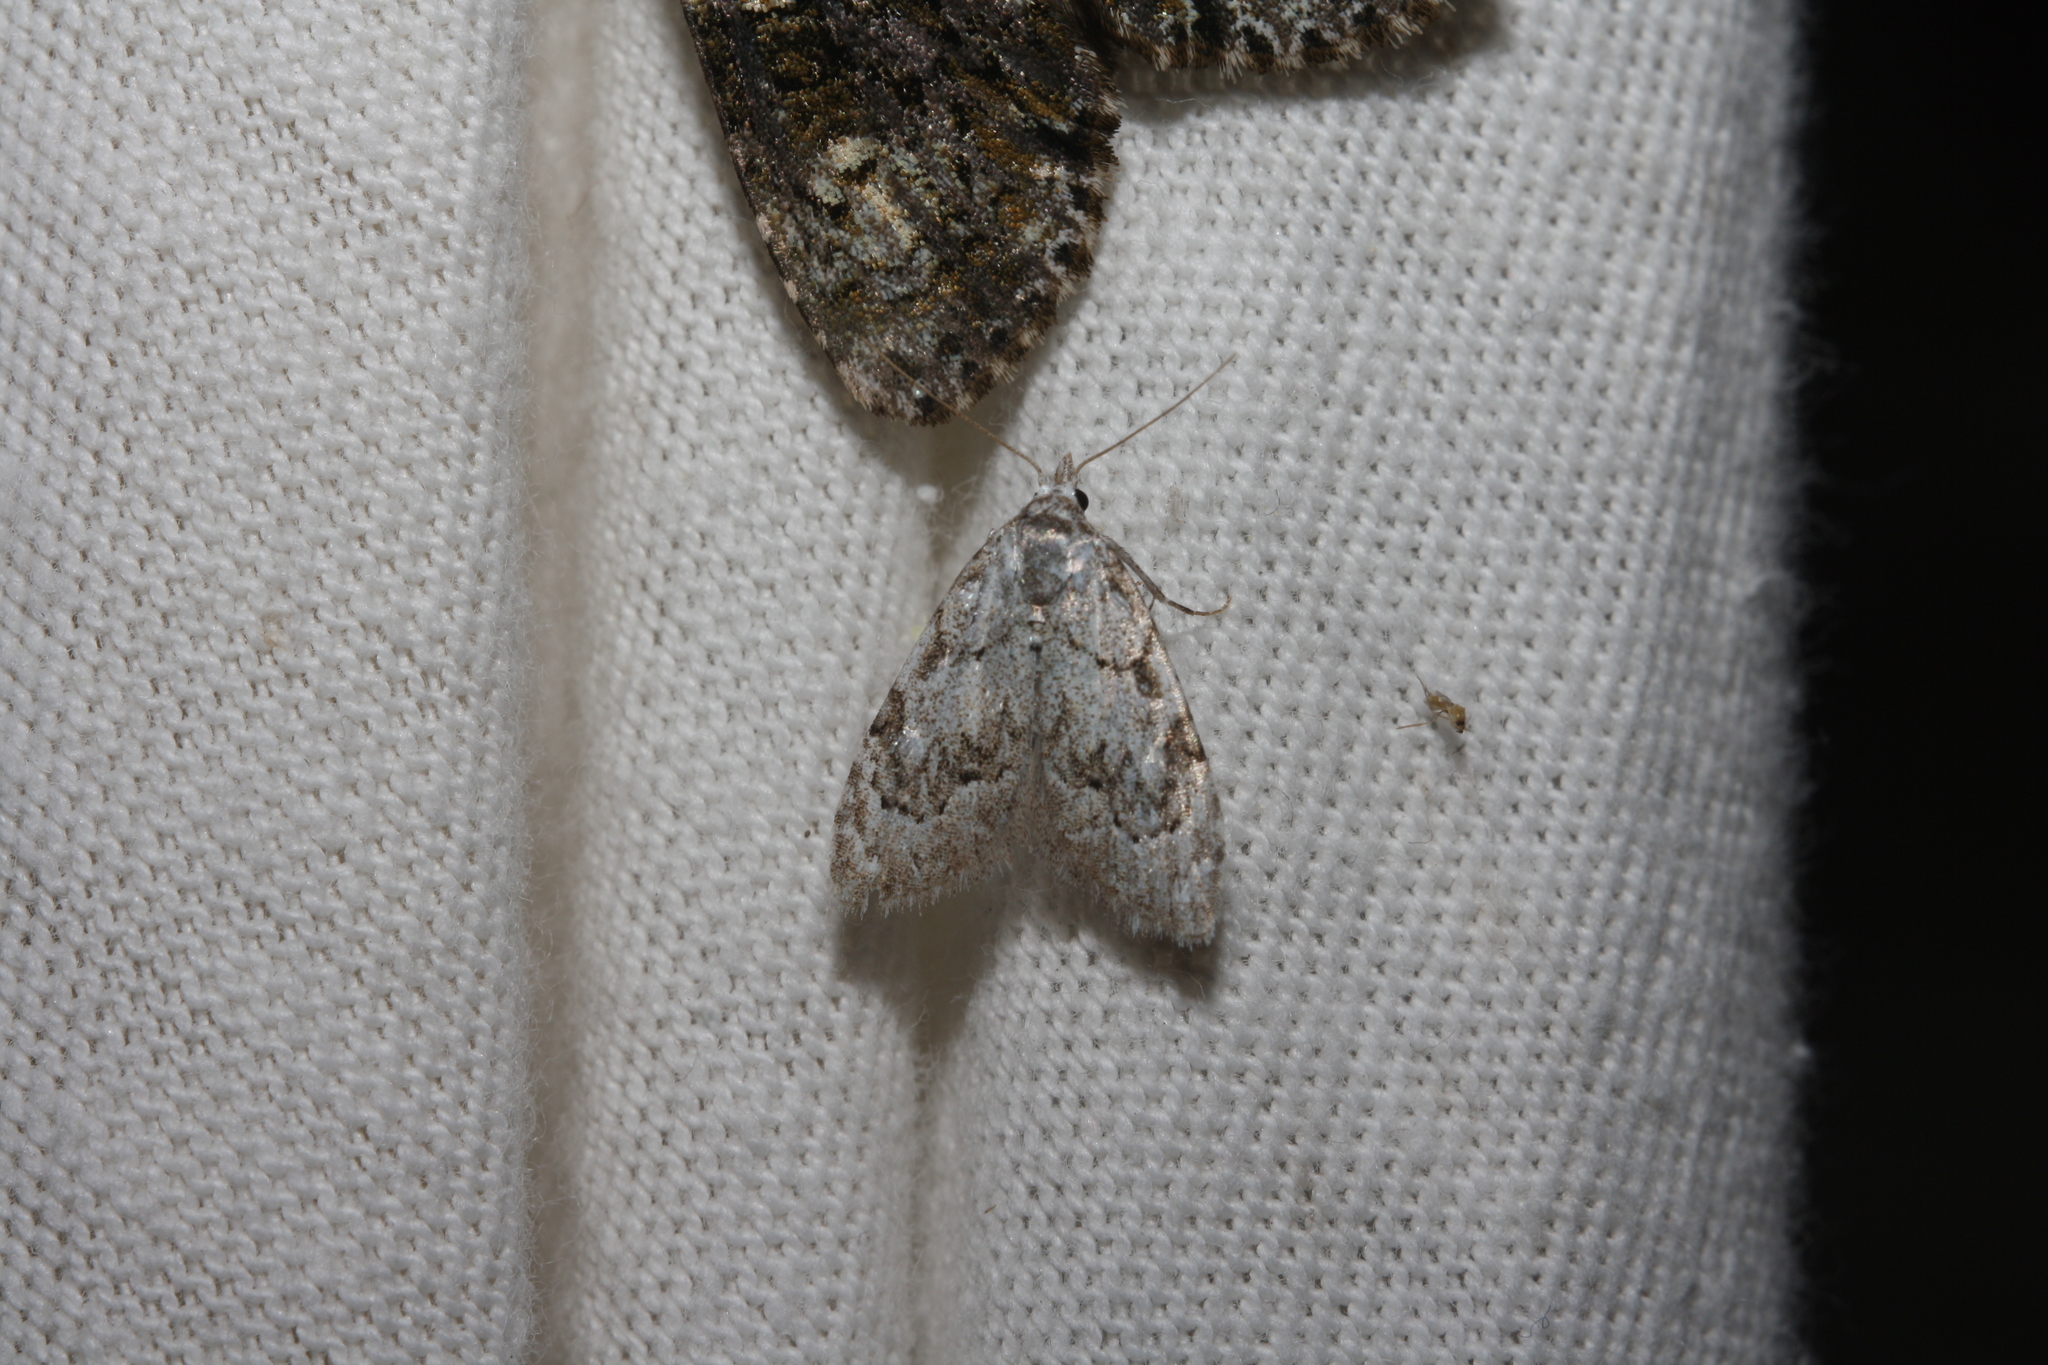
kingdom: Animalia
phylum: Arthropoda
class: Insecta
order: Lepidoptera
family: Nolidae
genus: Nola
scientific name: Nola confusalis
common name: Least black arches
